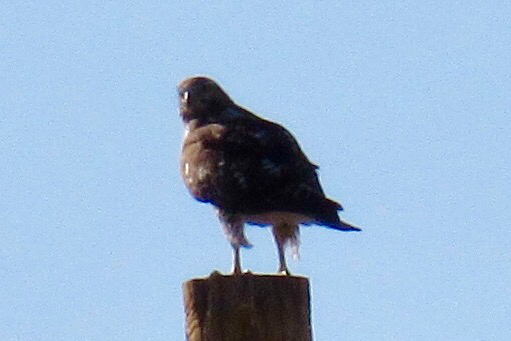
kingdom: Animalia
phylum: Chordata
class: Aves
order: Accipitriformes
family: Accipitridae
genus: Buteo
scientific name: Buteo jamaicensis
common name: Red-tailed hawk
